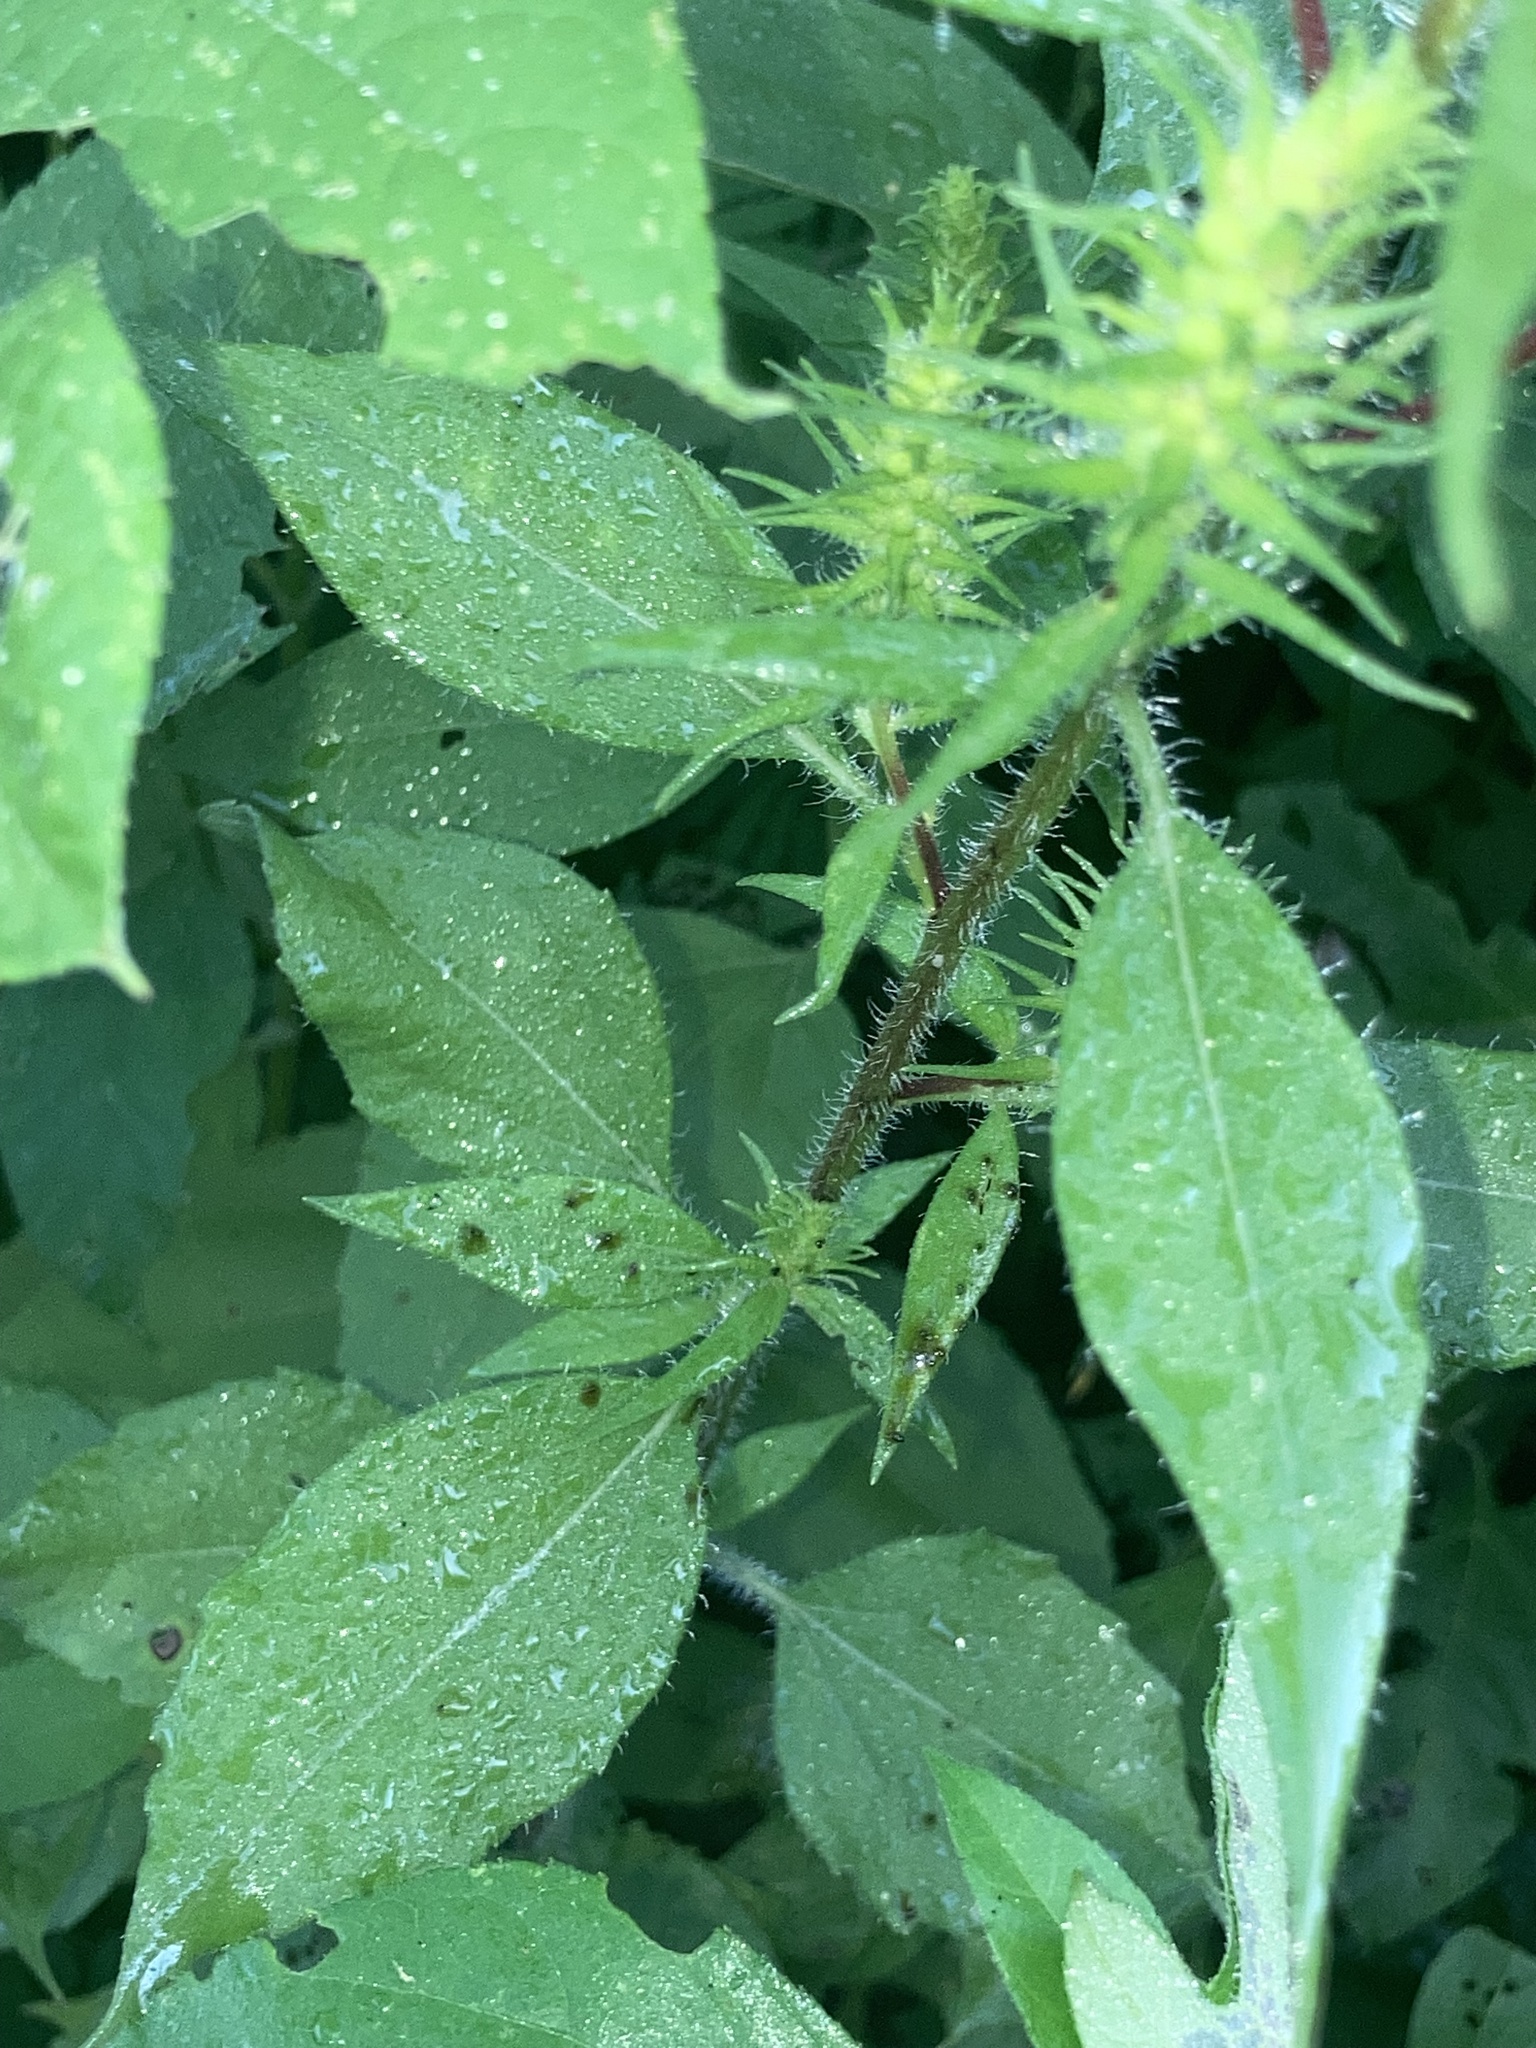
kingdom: Plantae
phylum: Tracheophyta
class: Magnoliopsida
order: Asterales
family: Asteraceae
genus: Iva
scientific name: Iva annua
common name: Marsh-elder
